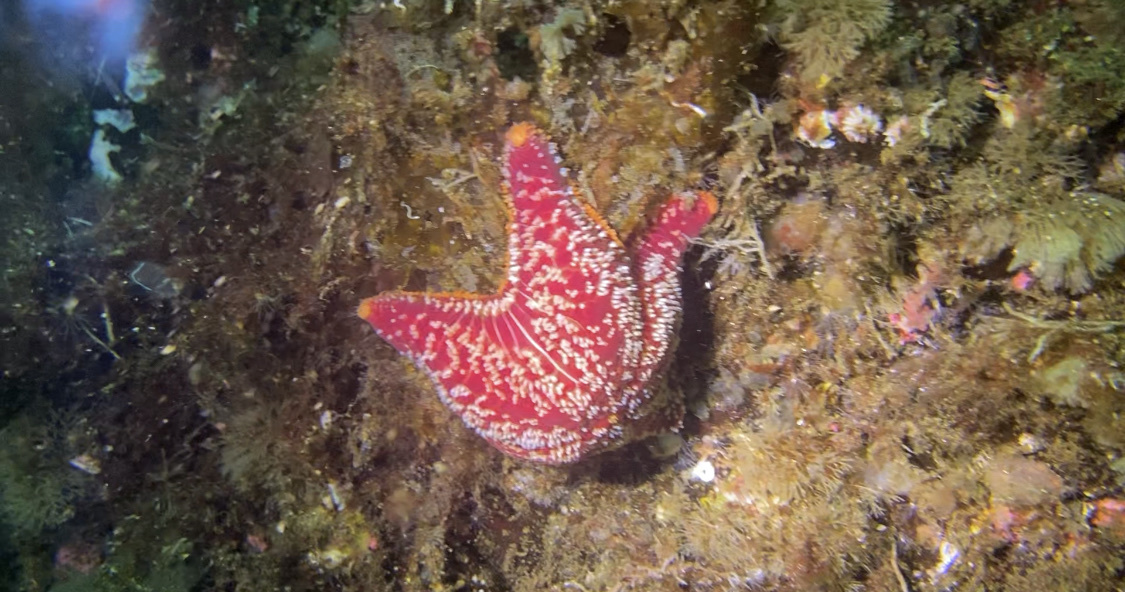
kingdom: Animalia
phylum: Echinodermata
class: Asteroidea
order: Valvatida
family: Poraniidae
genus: Porania
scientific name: Porania pulvillus
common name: Red cushion stat
